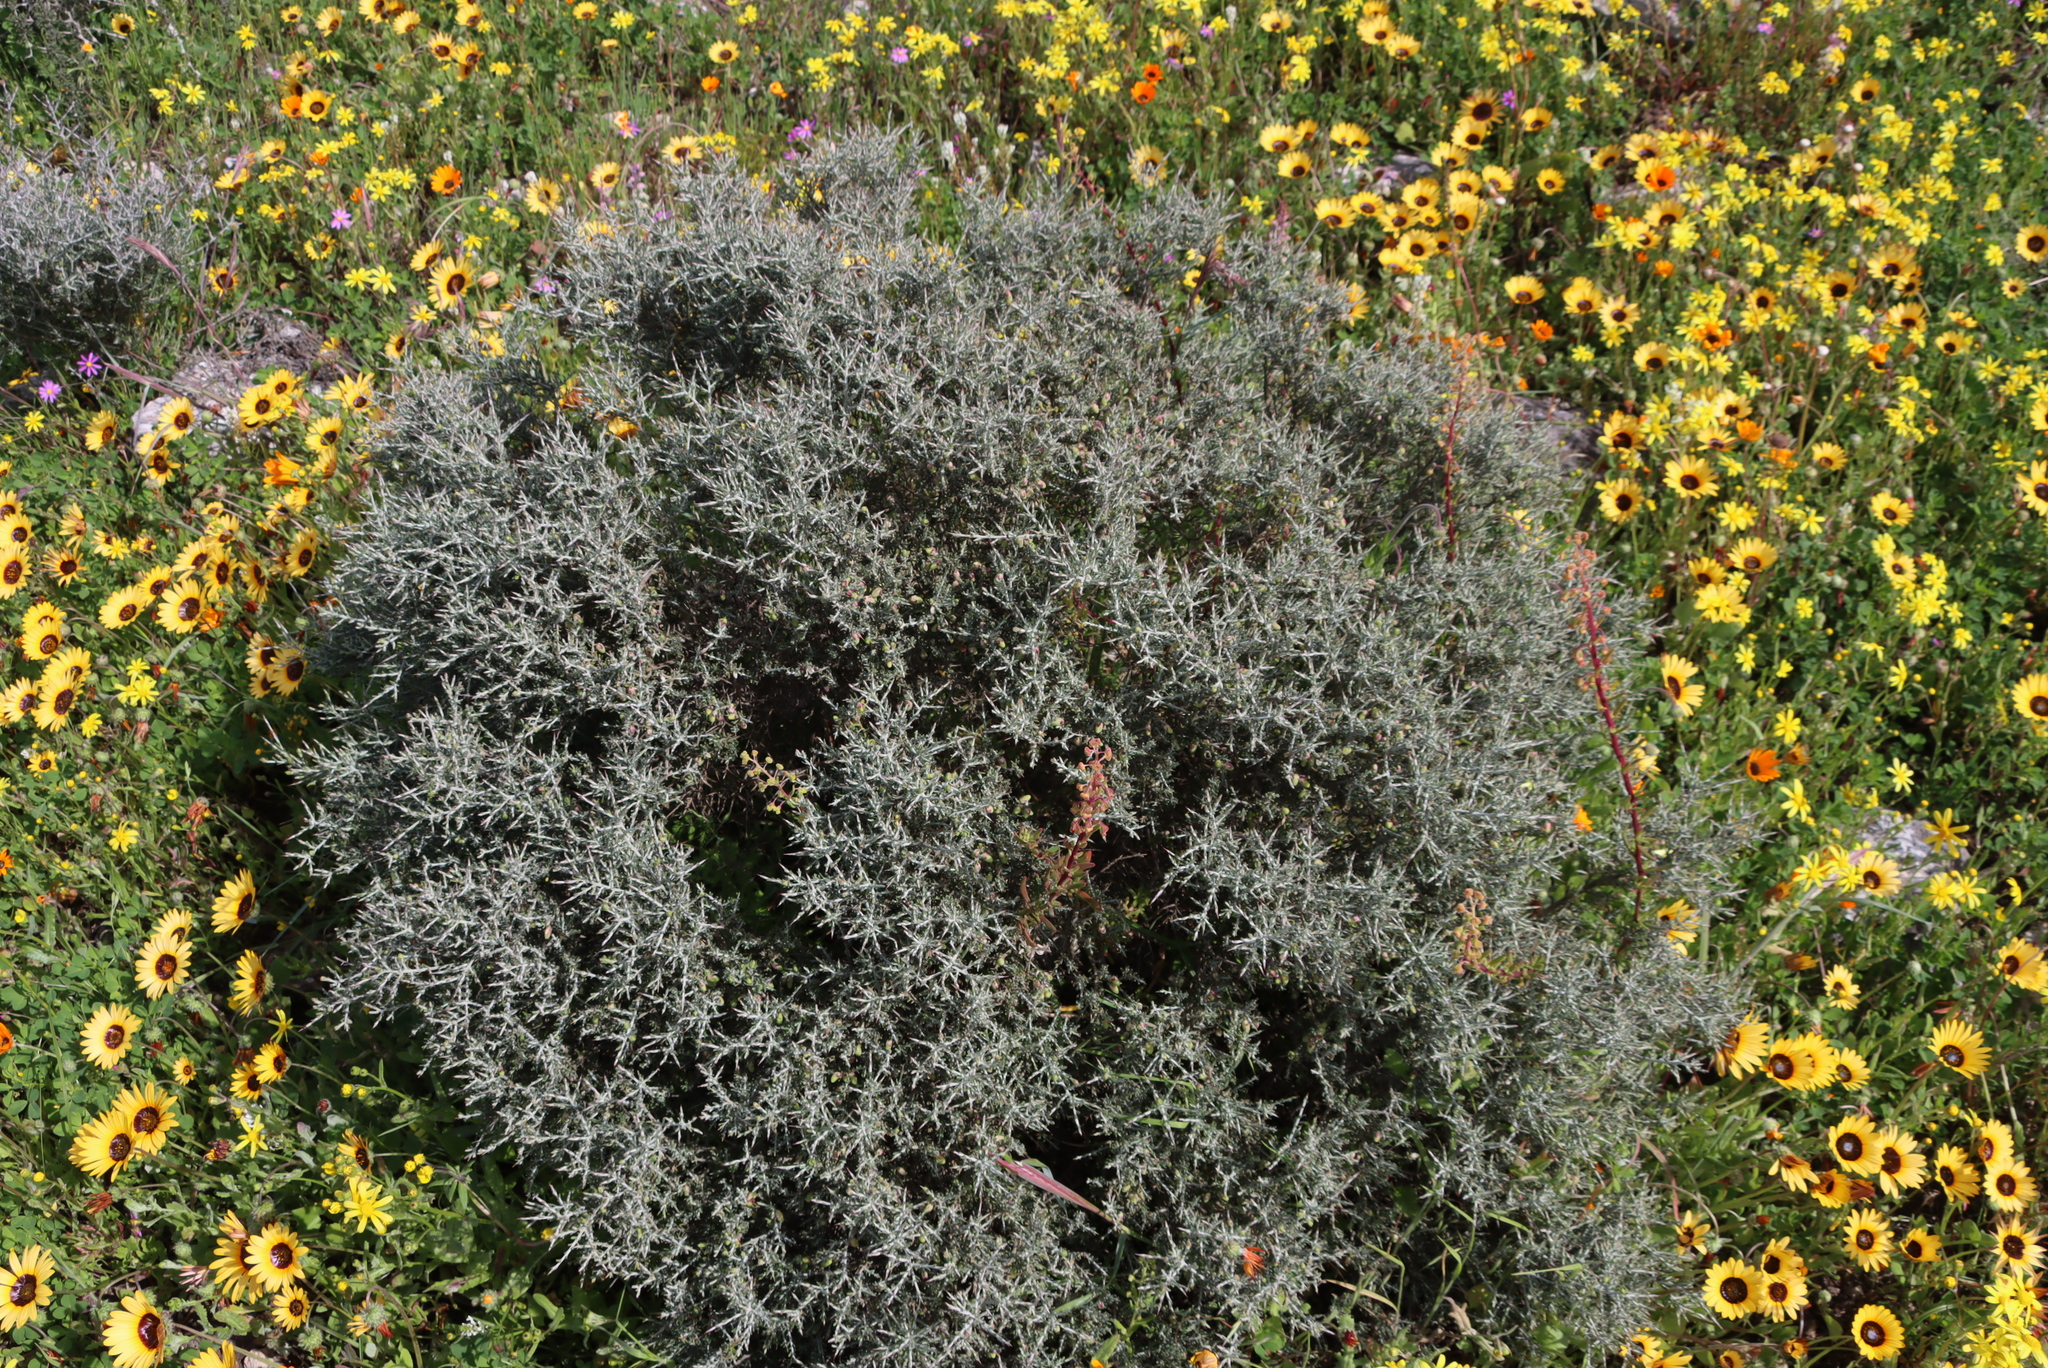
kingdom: Plantae
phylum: Tracheophyta
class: Magnoliopsida
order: Fabales
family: Polygalaceae
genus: Muraltia
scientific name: Muraltia spinosa
